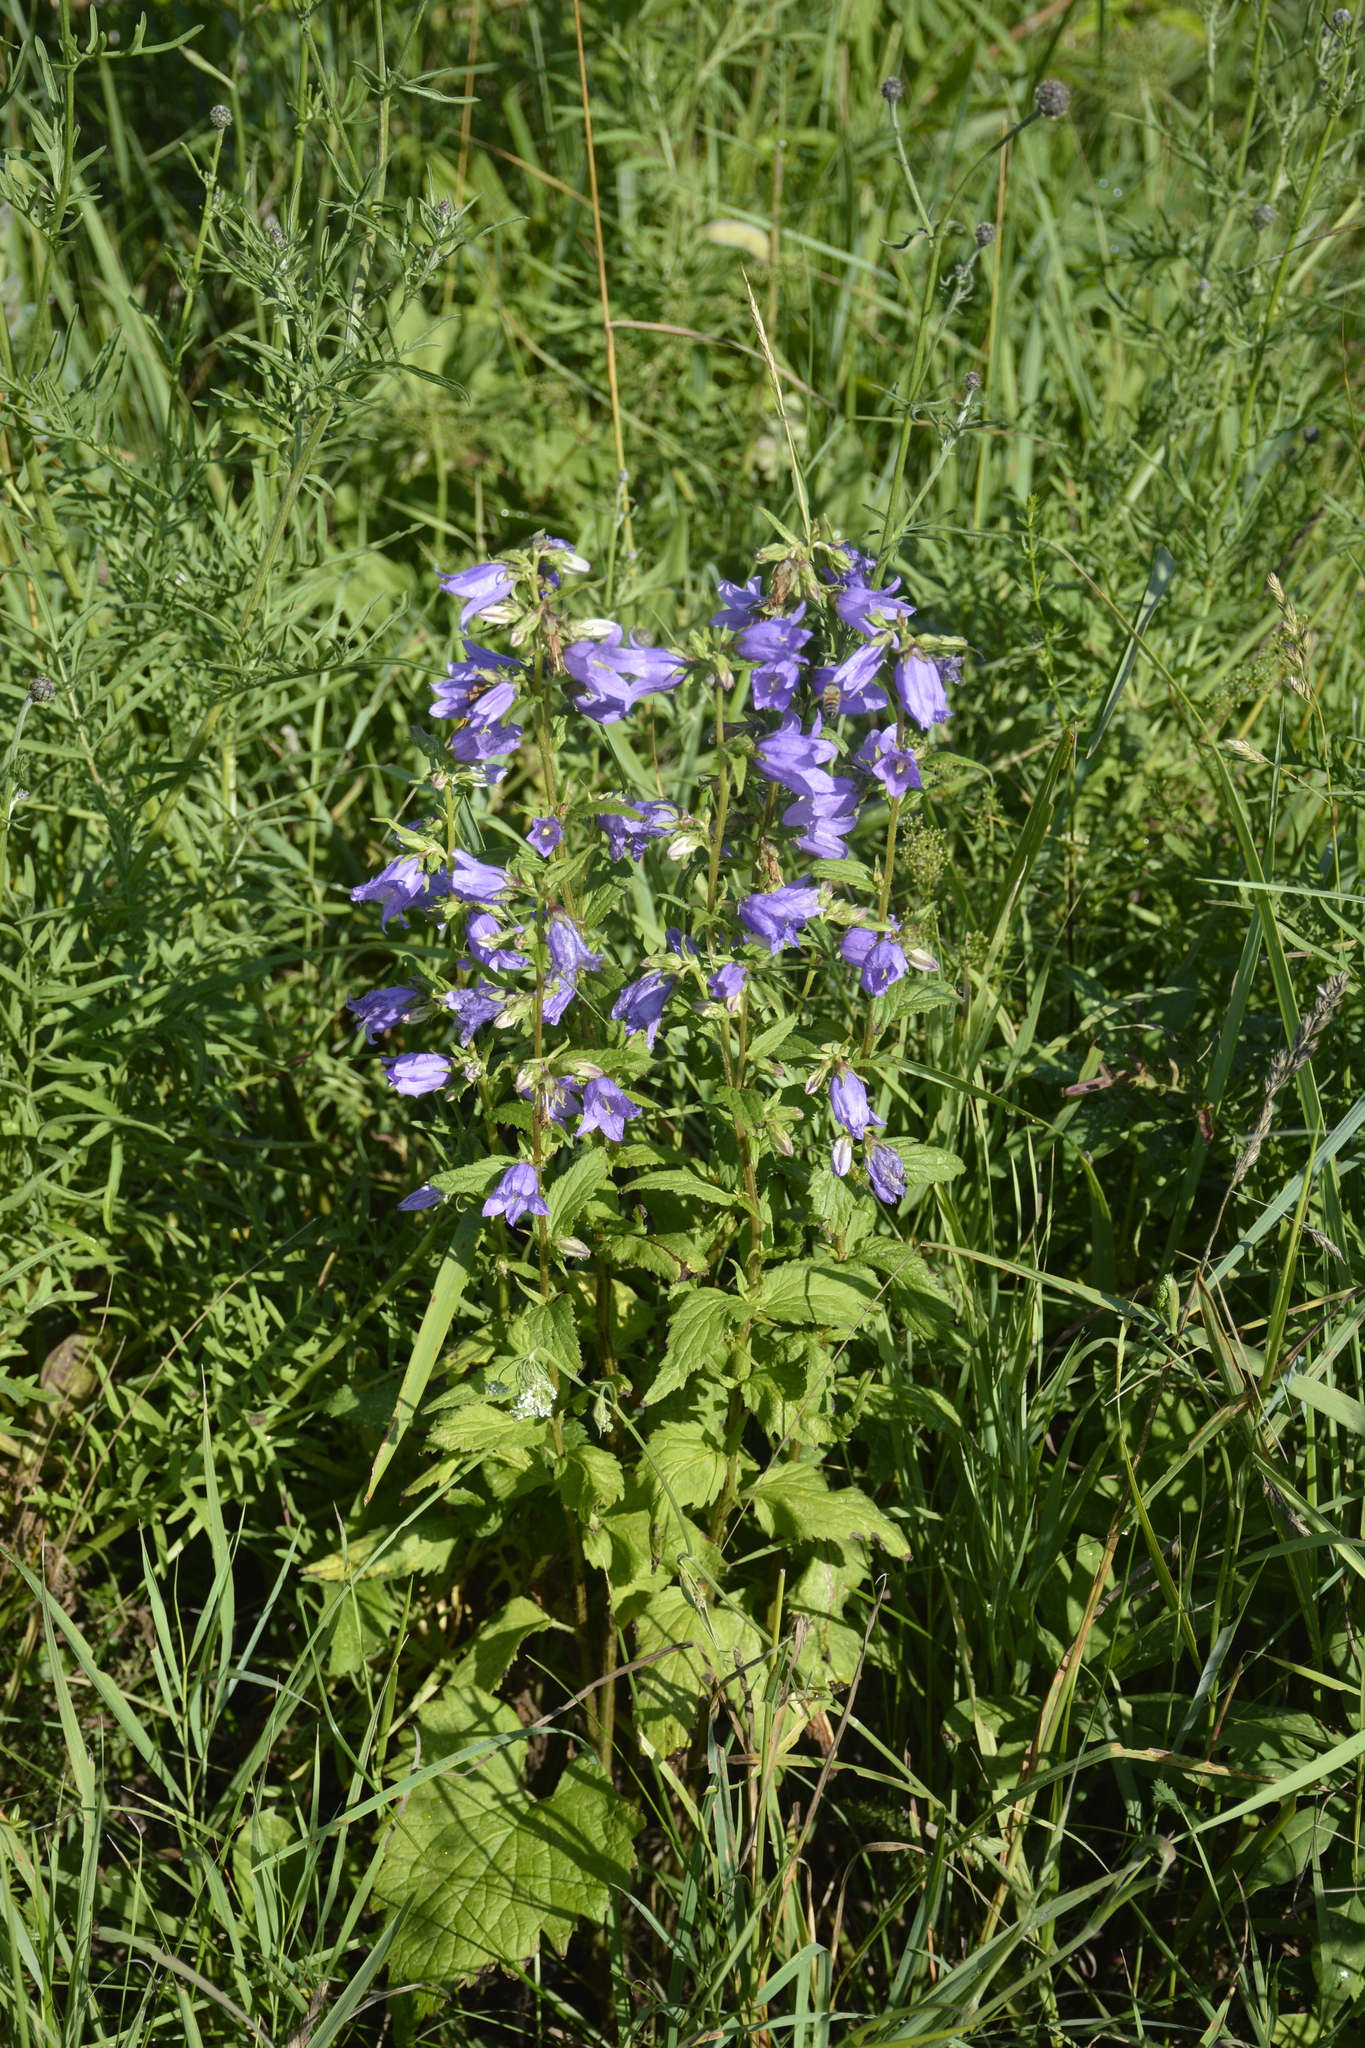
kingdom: Plantae
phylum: Tracheophyta
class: Magnoliopsida
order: Asterales
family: Campanulaceae
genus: Campanula
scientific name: Campanula trachelium
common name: Nettle-leaved bellflower
